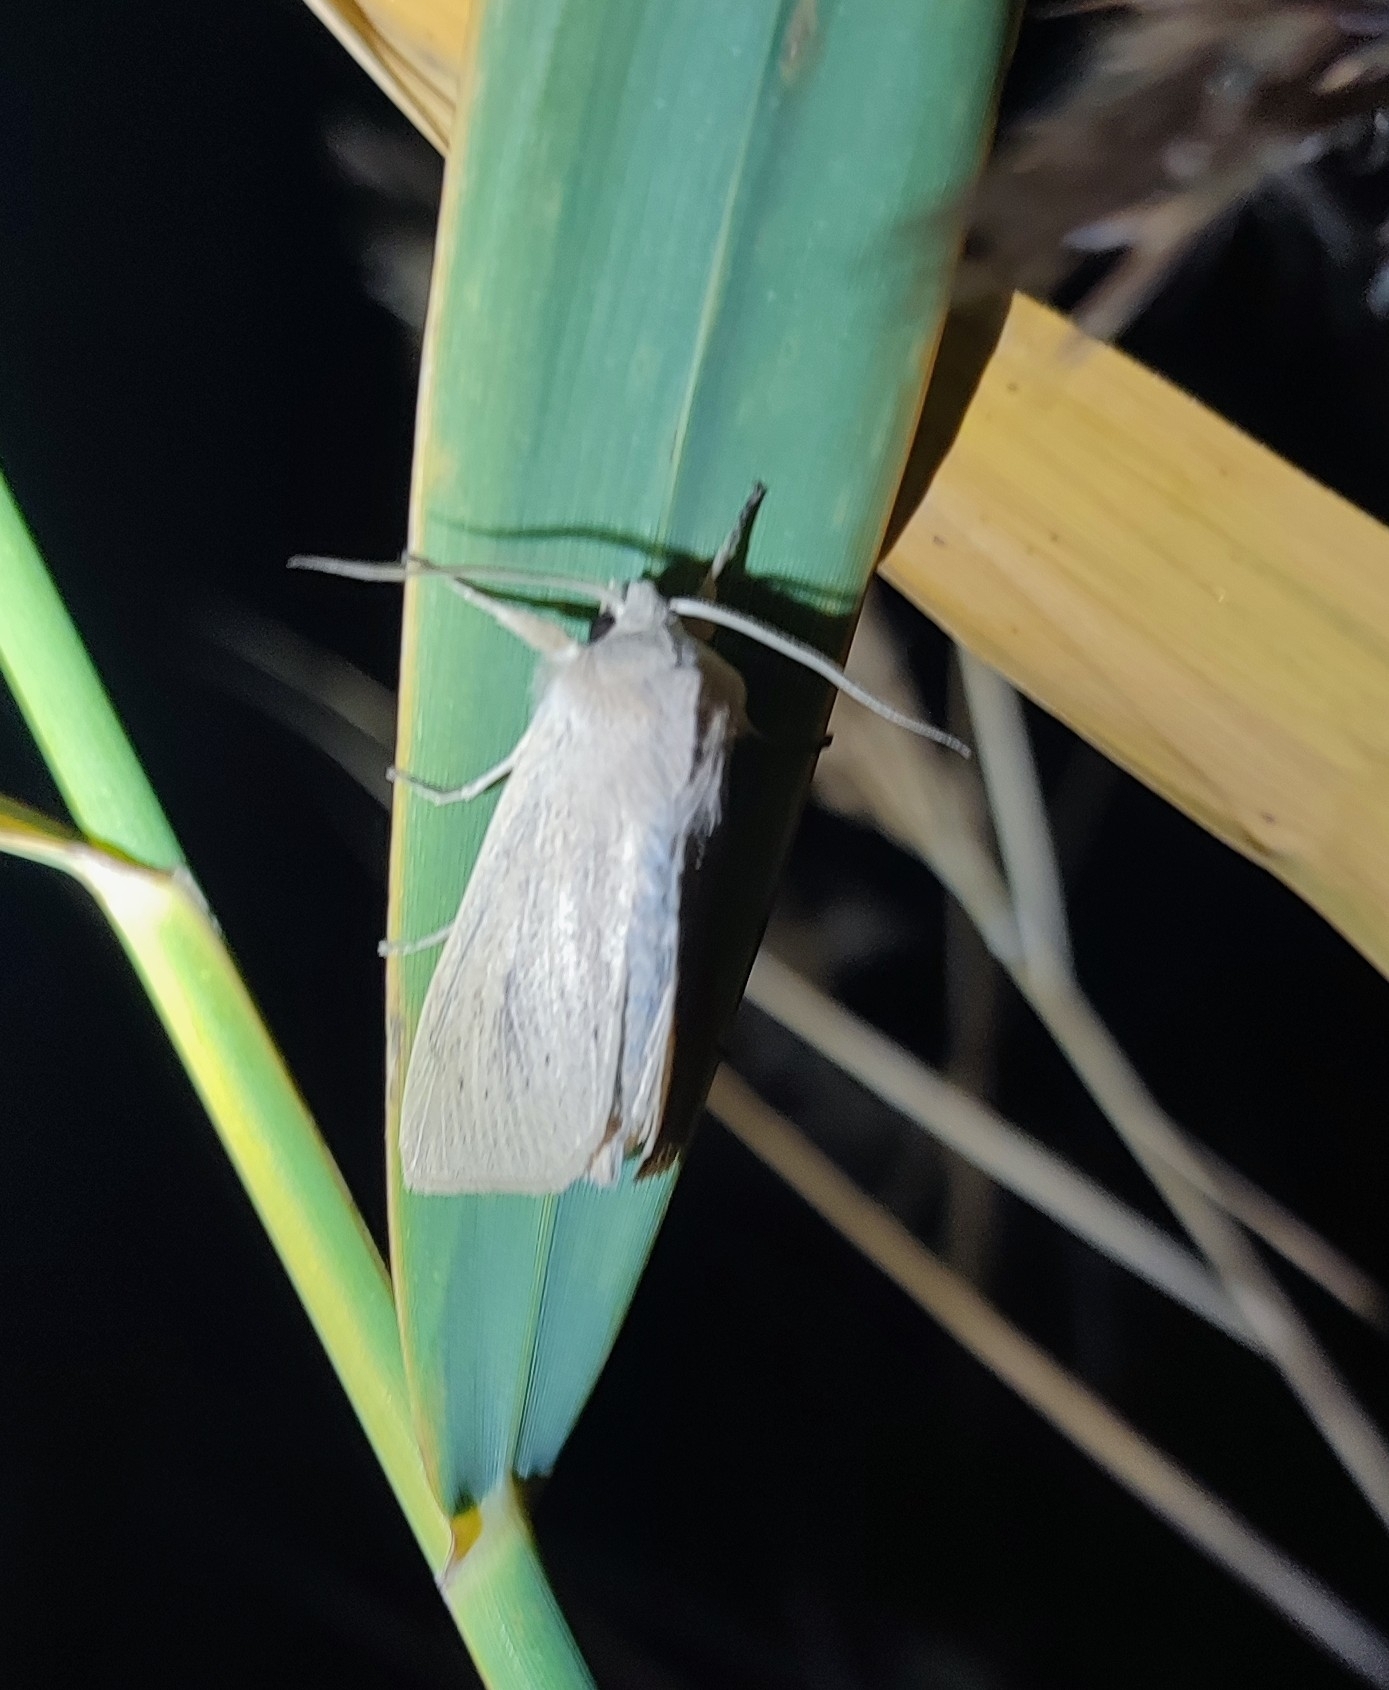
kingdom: Animalia
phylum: Arthropoda
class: Insecta
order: Lepidoptera
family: Noctuidae
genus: Rhizedra
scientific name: Rhizedra lutosa
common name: Large wainscot
